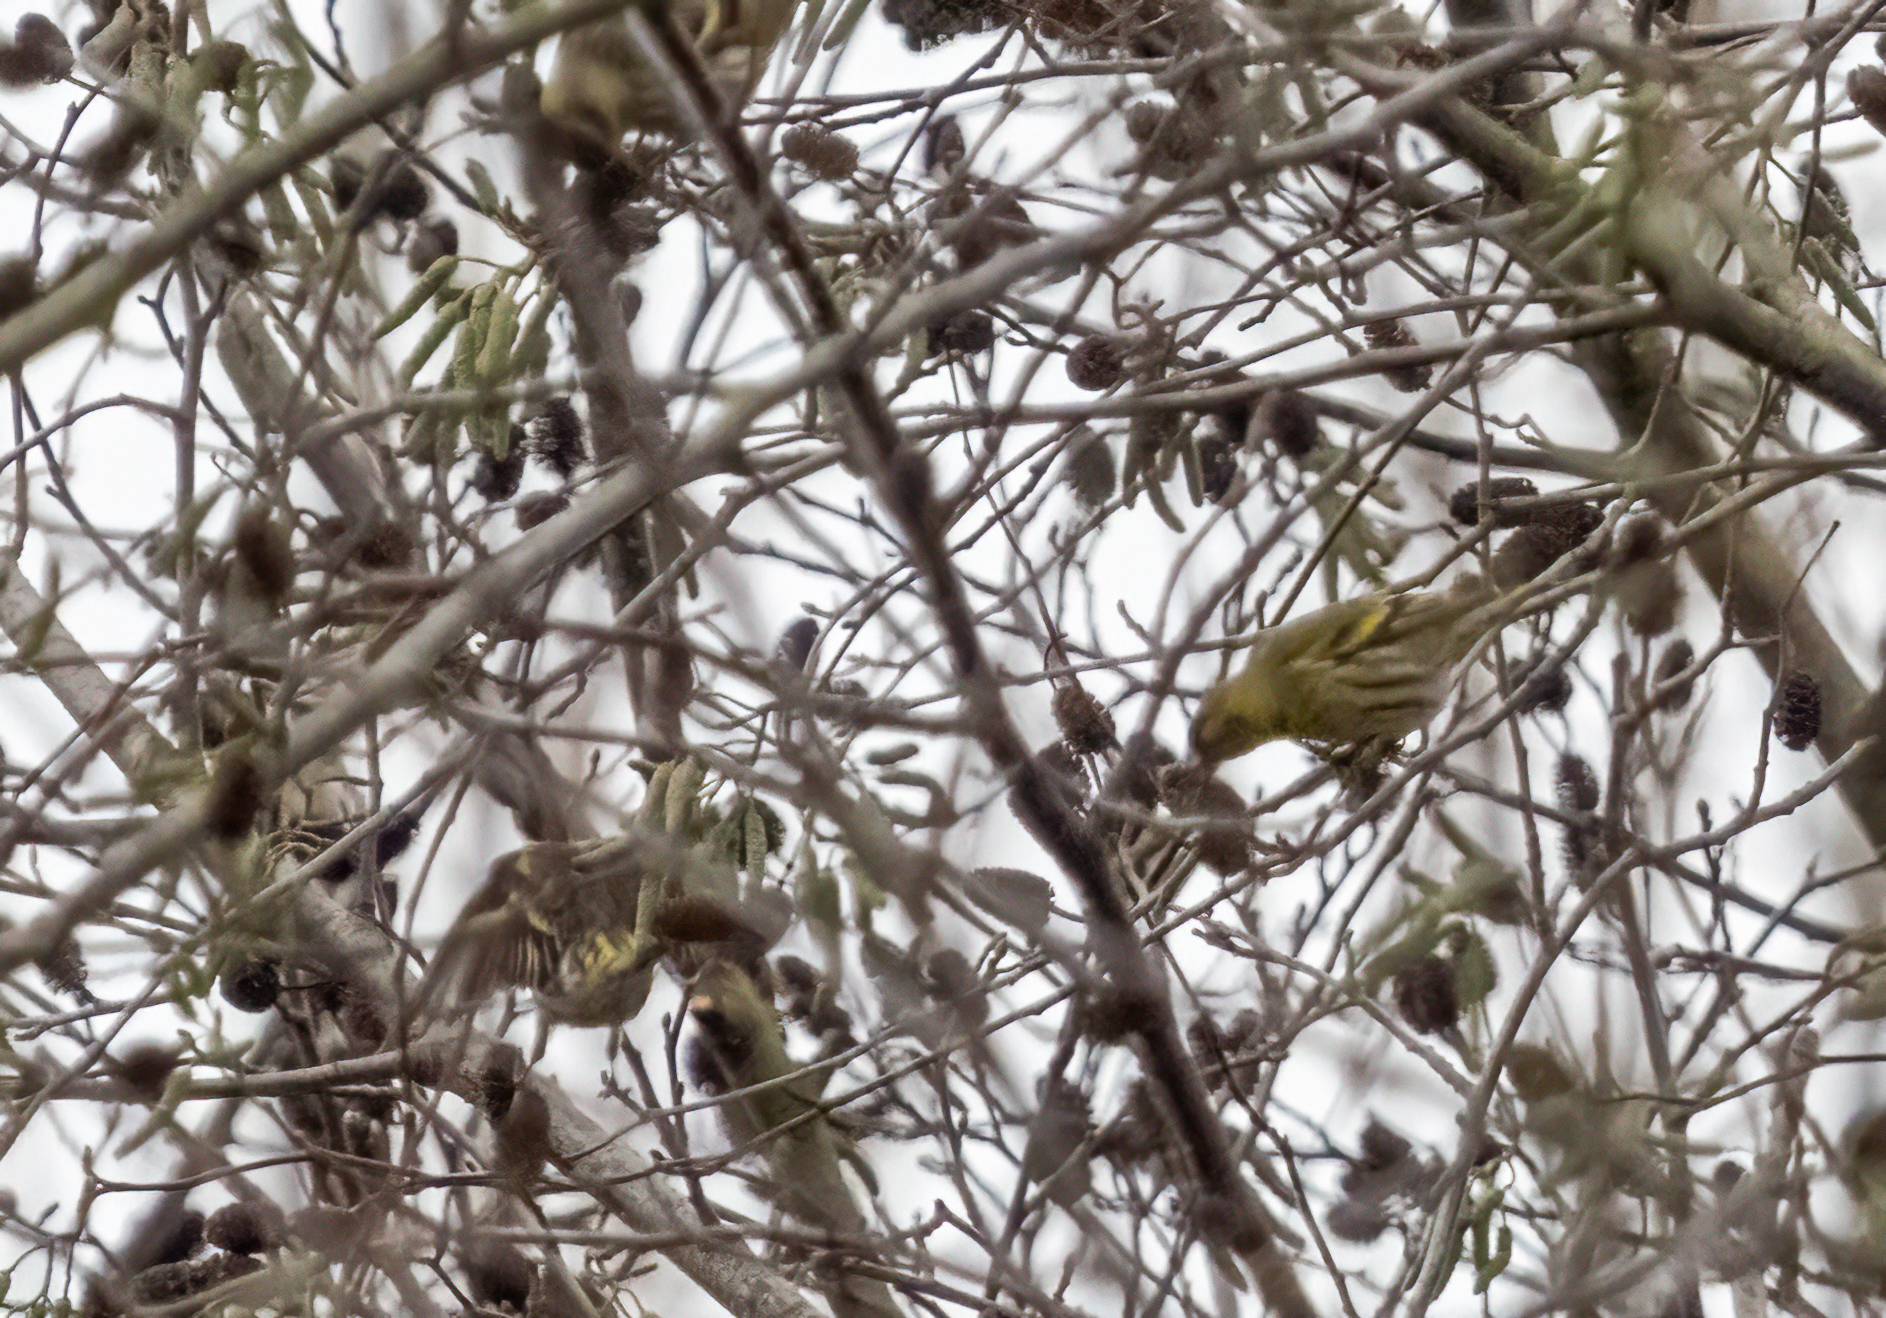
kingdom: Animalia
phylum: Chordata
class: Aves
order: Passeriformes
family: Fringillidae
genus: Spinus
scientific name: Spinus spinus
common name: Eurasian siskin
